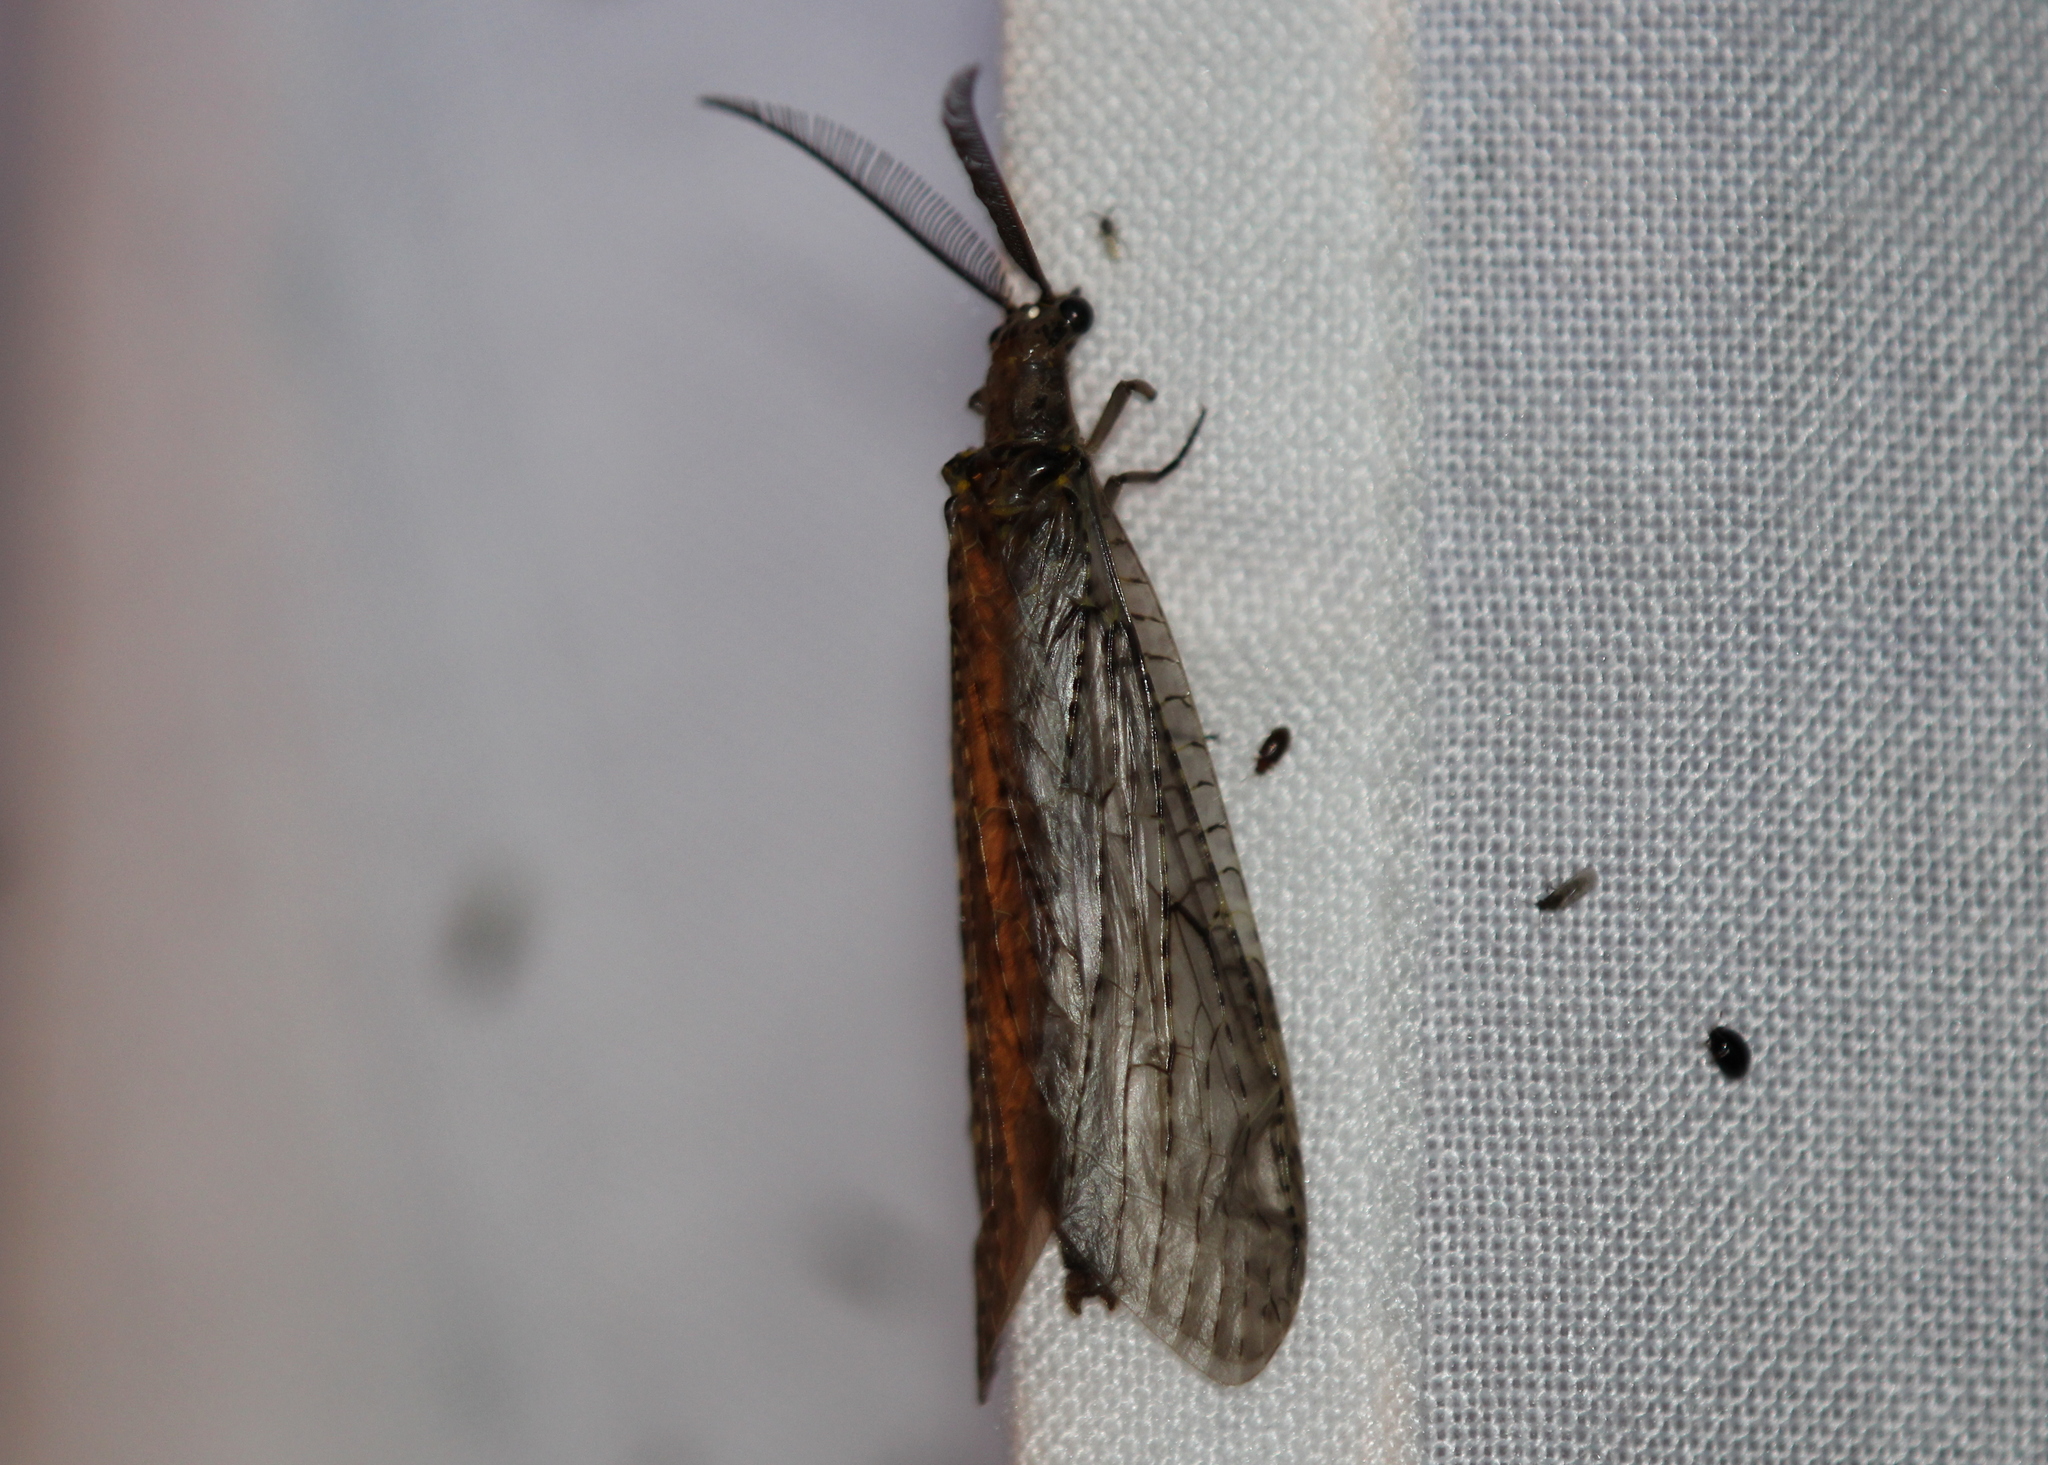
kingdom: Animalia
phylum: Arthropoda
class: Insecta
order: Megaloptera
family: Corydalidae
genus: Chauliodes
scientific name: Chauliodes rastricornis
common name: Spring fishfly
